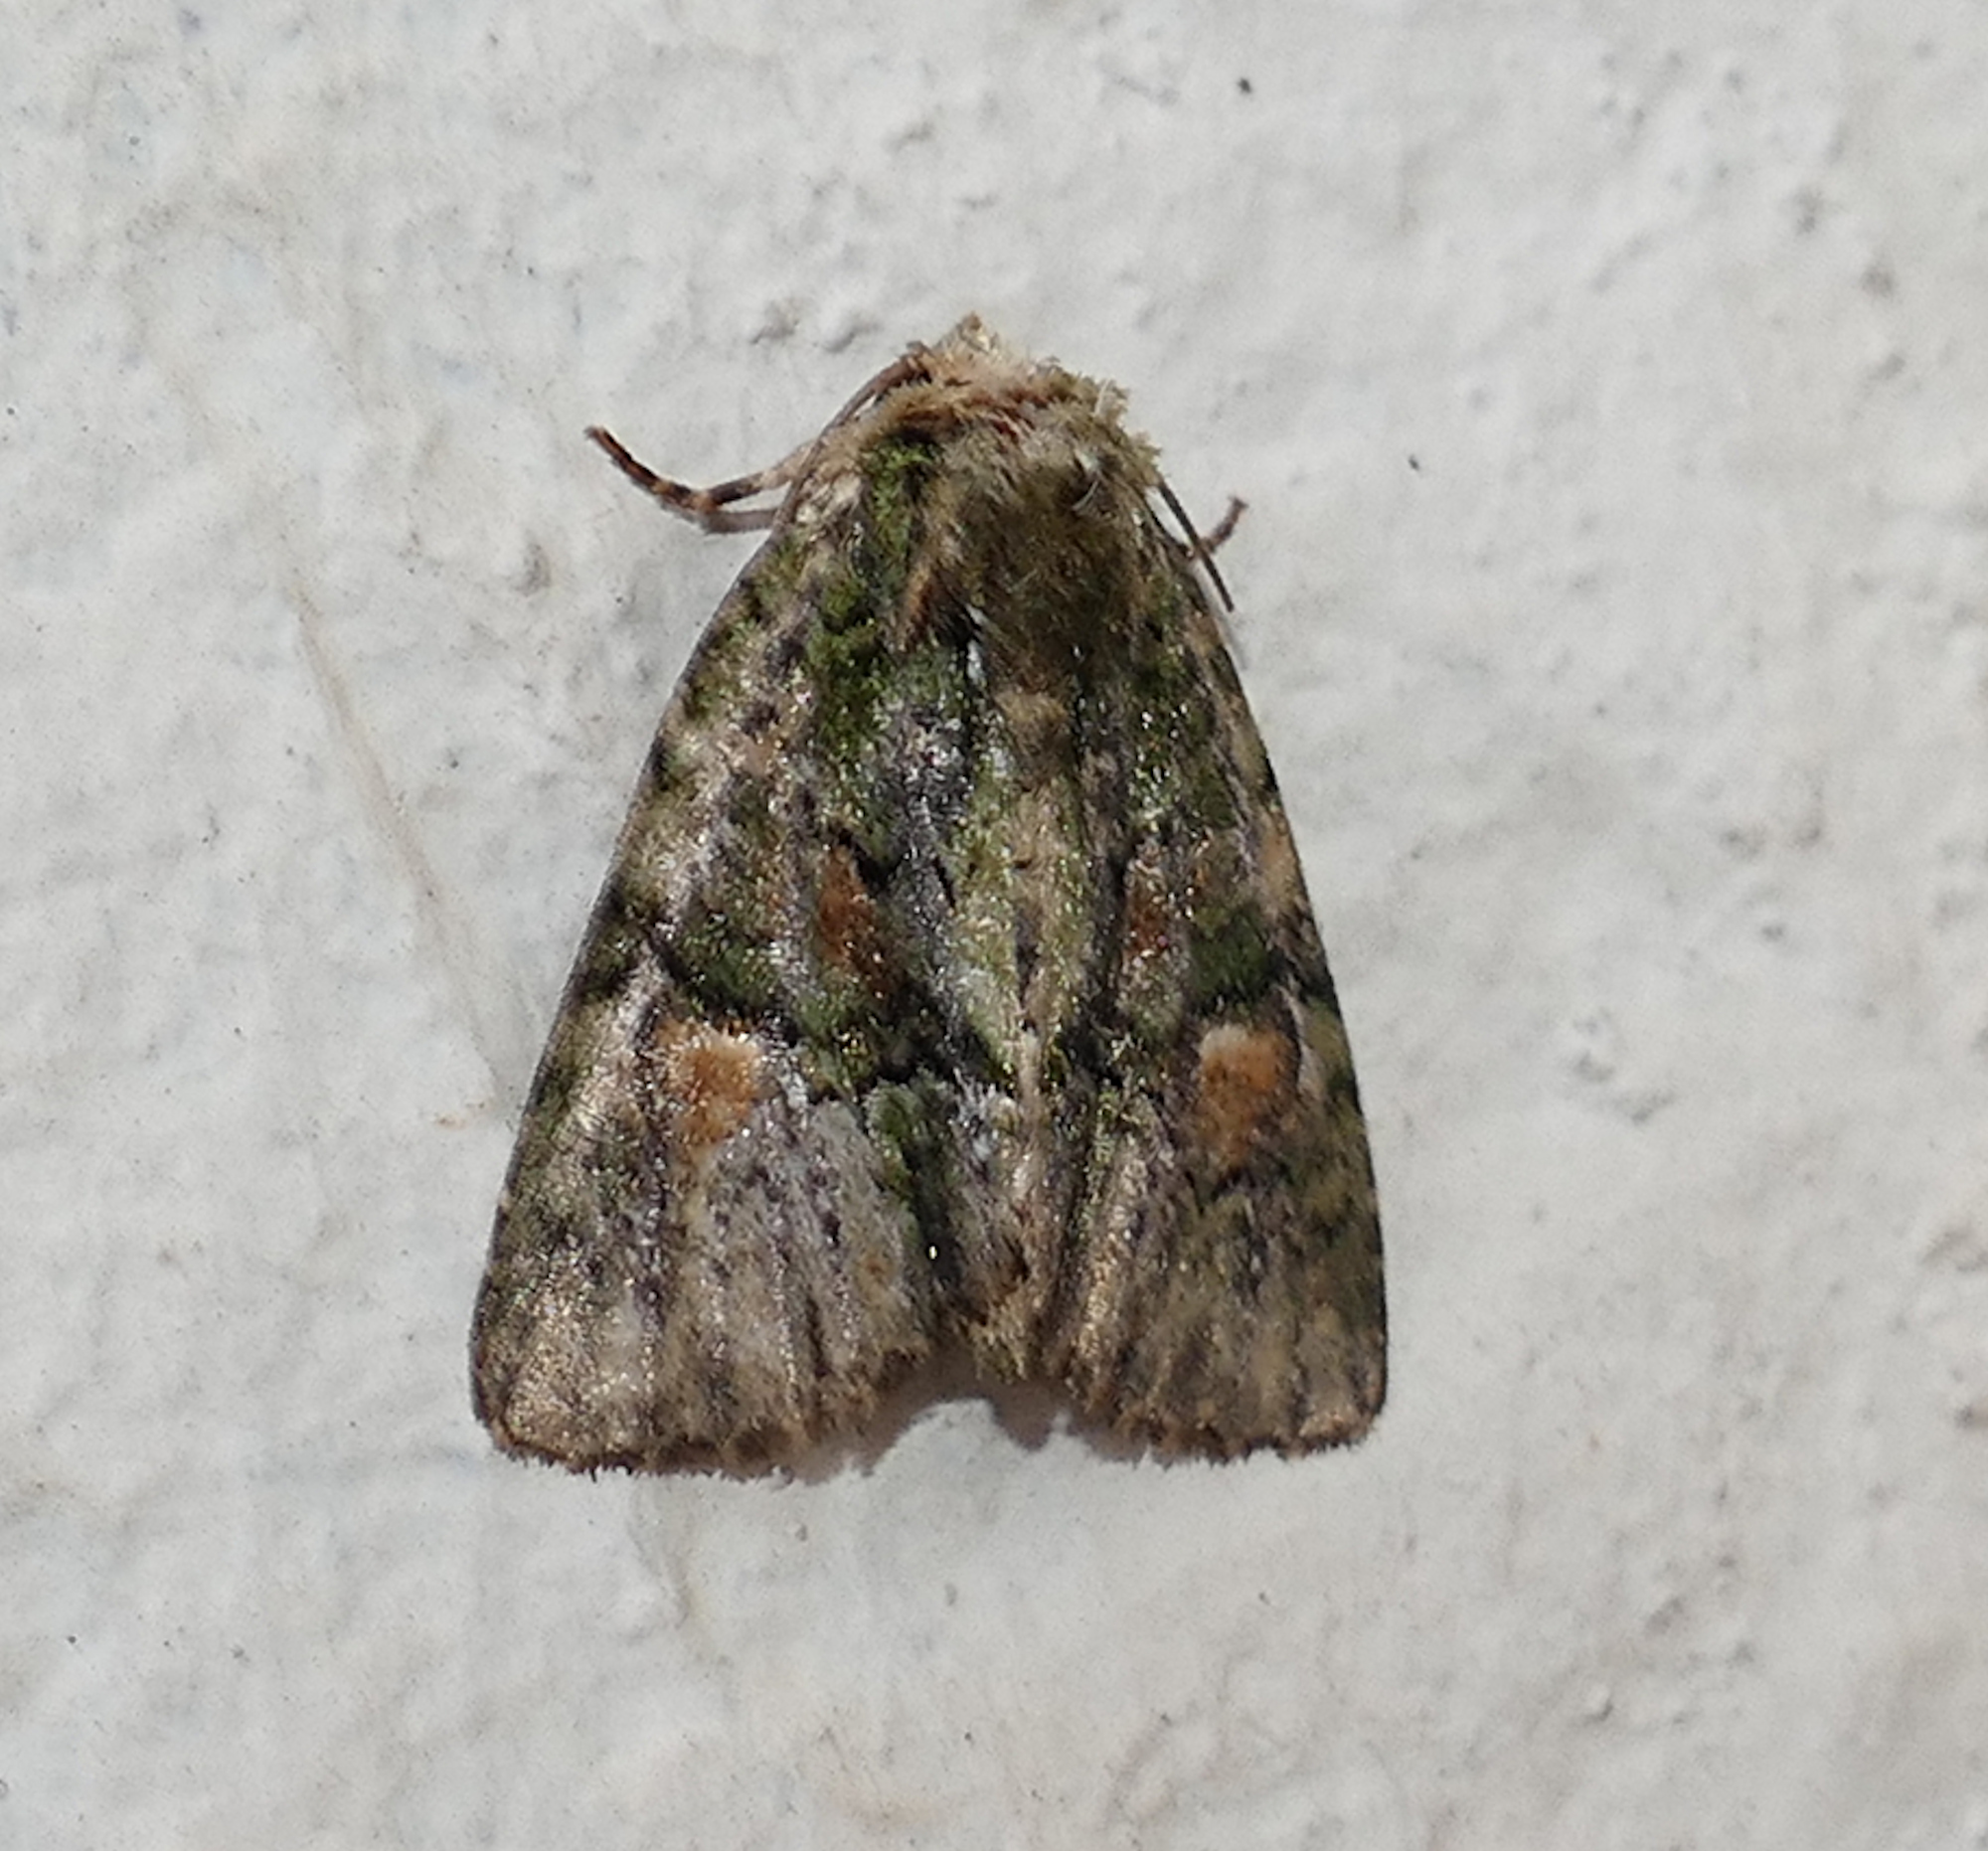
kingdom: Animalia
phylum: Arthropoda
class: Insecta
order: Lepidoptera
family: Noctuidae
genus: Phosphila
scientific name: Phosphila miselioides
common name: Spotted phosphila moth
